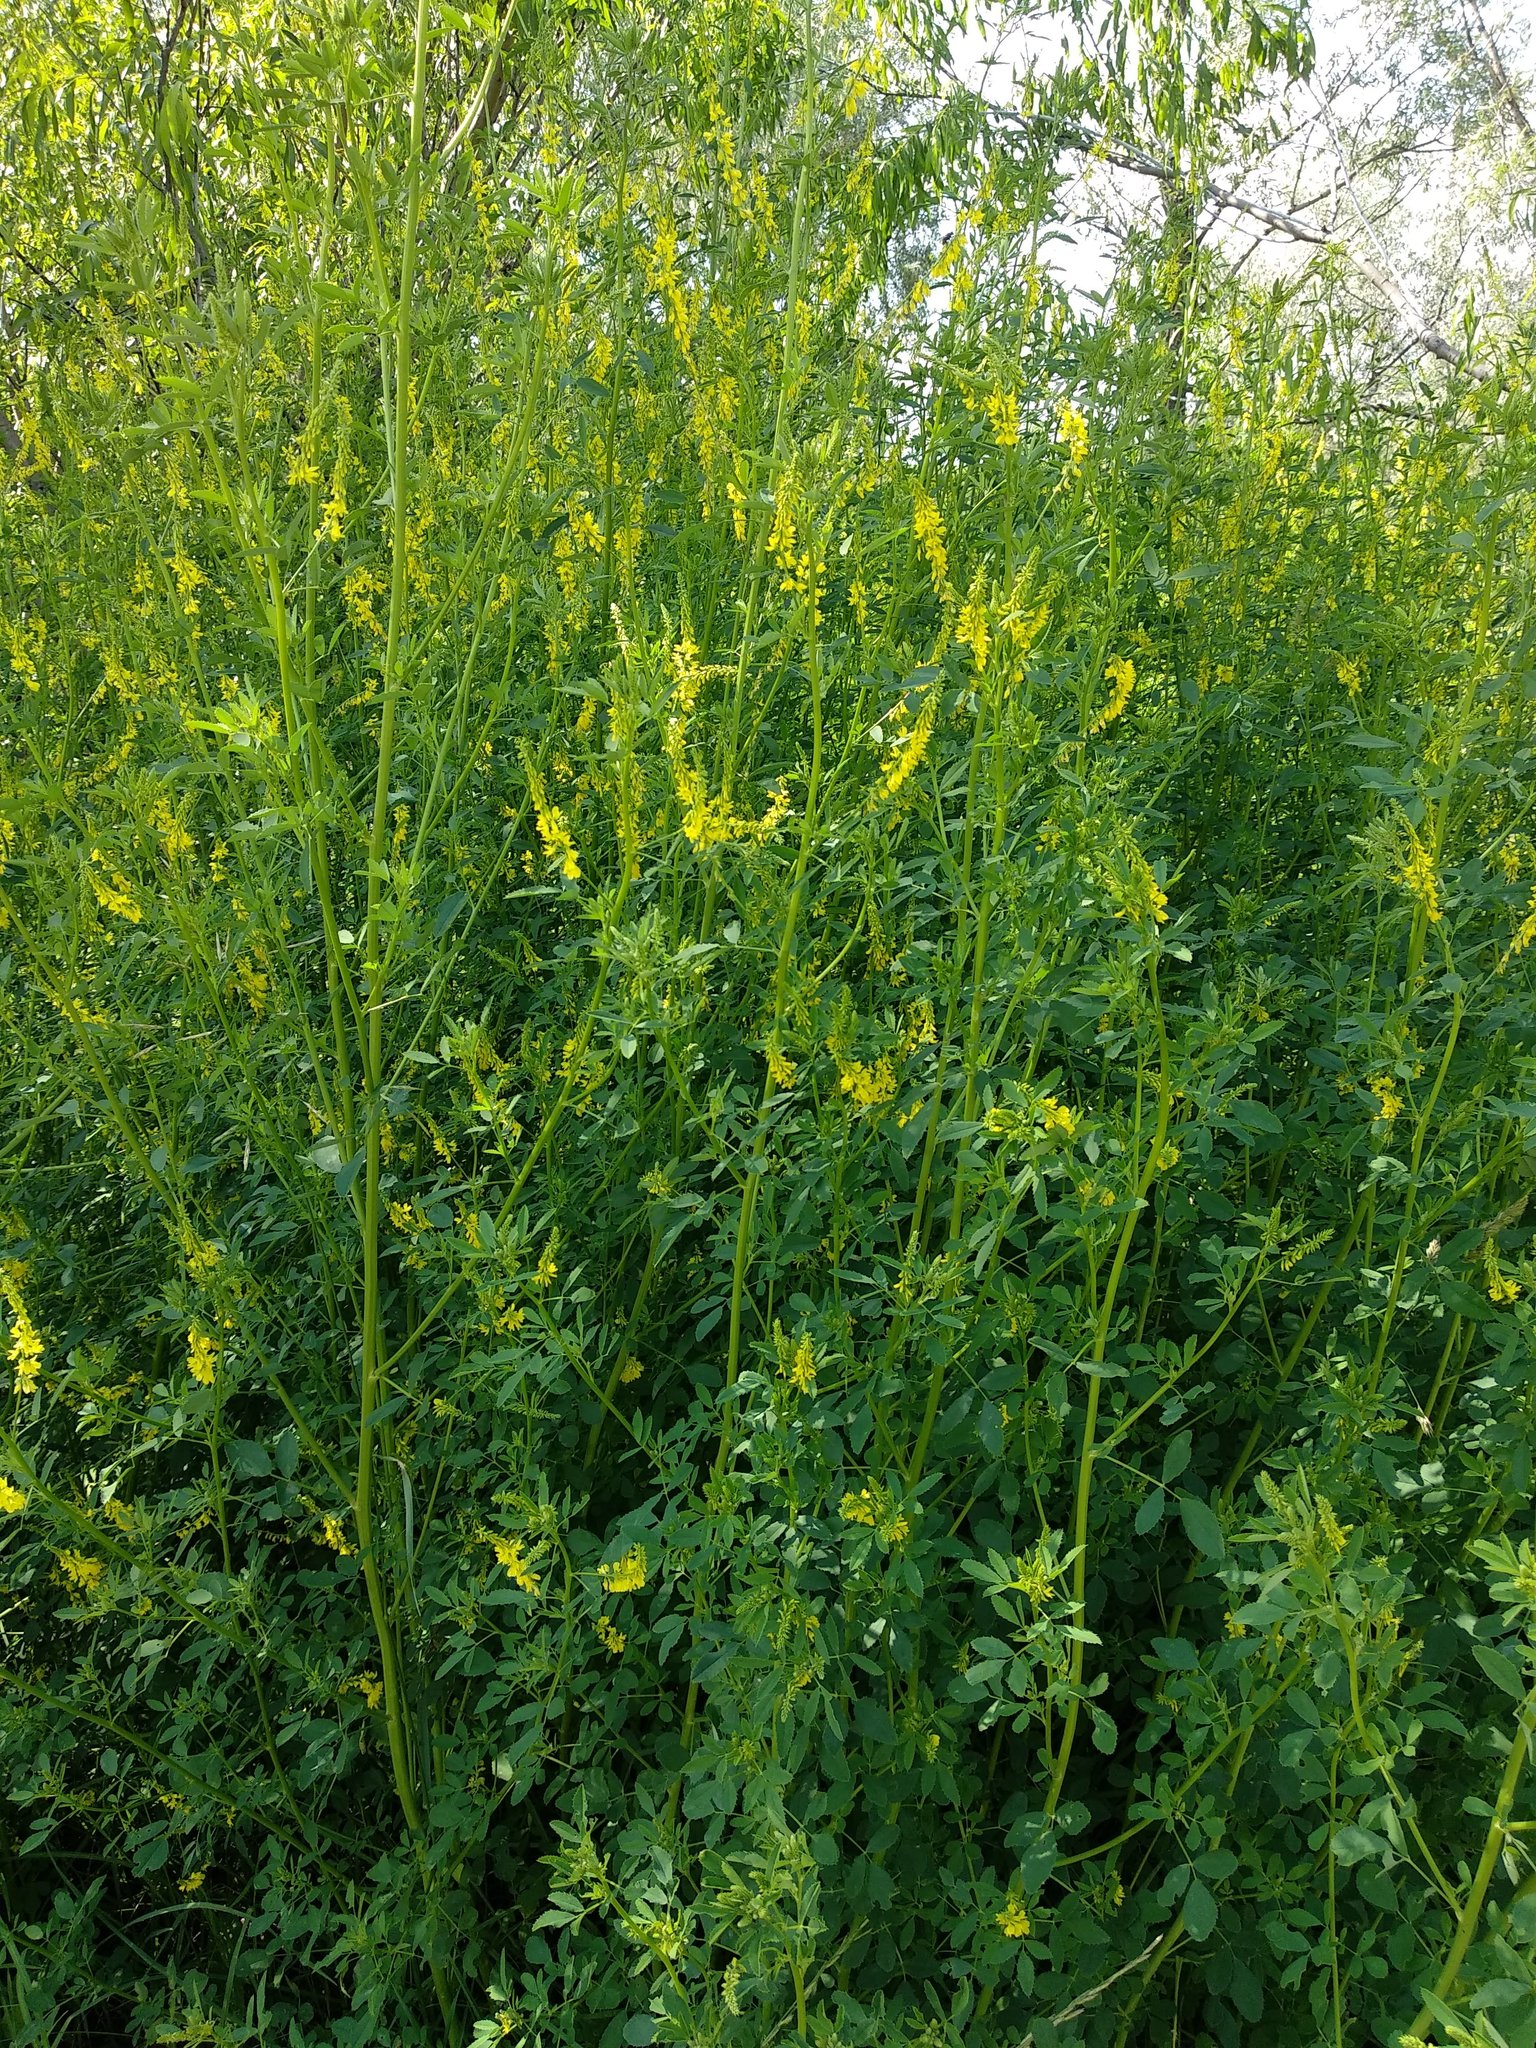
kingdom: Plantae
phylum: Tracheophyta
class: Magnoliopsida
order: Fabales
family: Fabaceae
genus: Melilotus
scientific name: Melilotus officinalis
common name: Sweetclover
